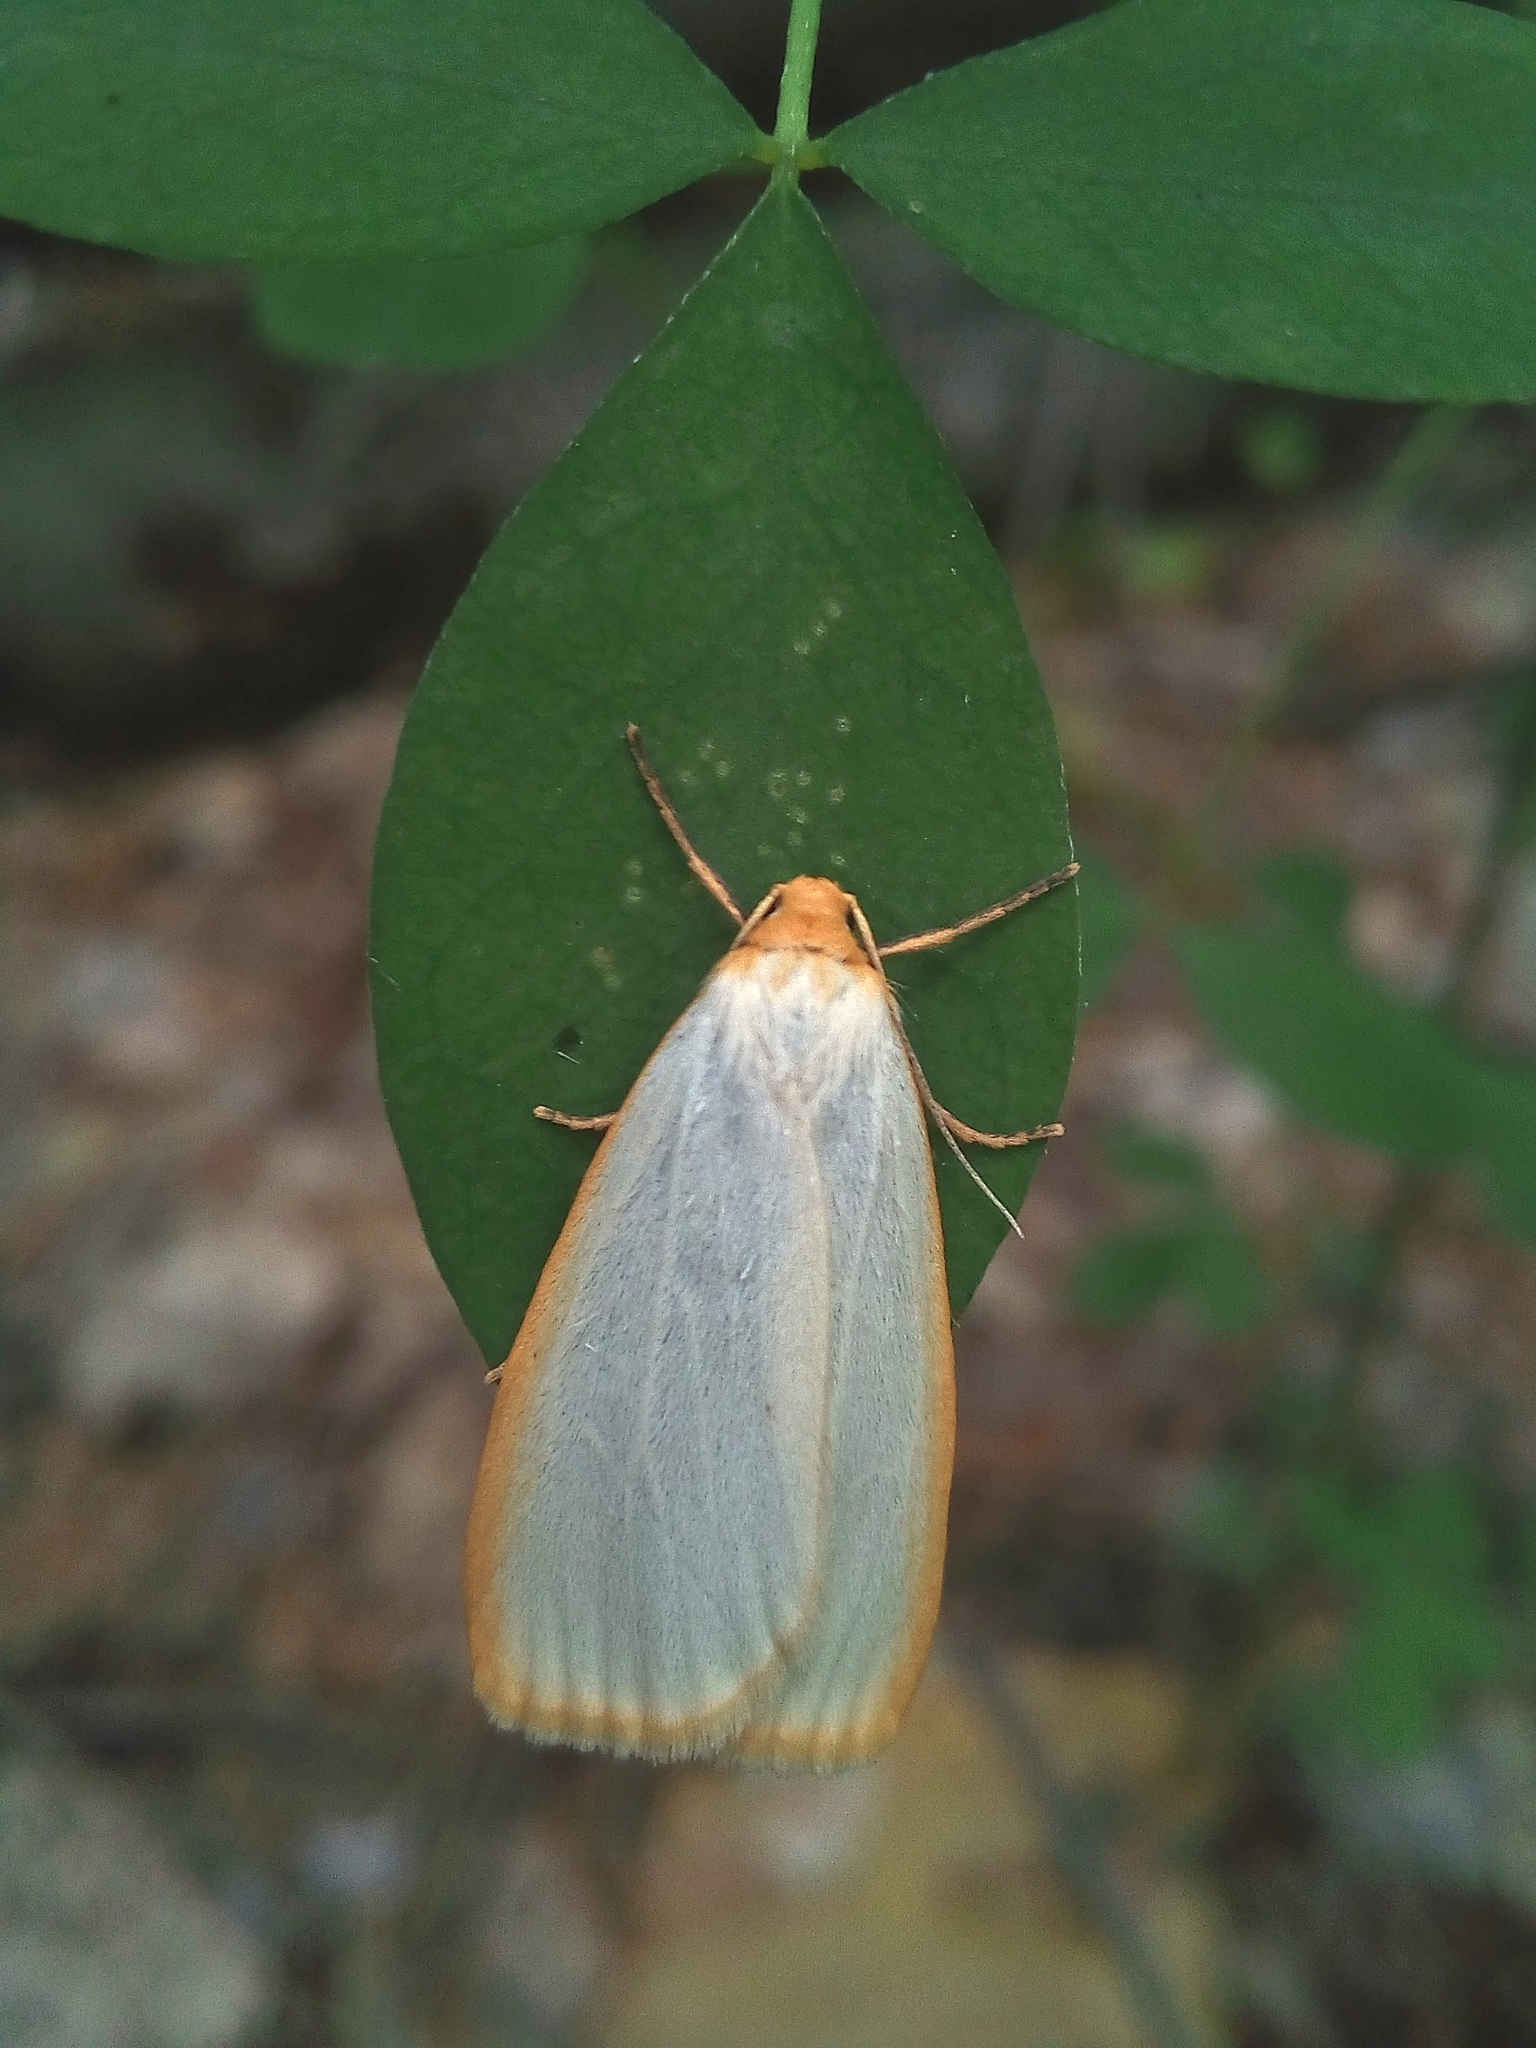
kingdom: Animalia
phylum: Arthropoda
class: Insecta
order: Lepidoptera
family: Erebidae
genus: Cybosia
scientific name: Cybosia mesomella
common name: Four-dotted footman
